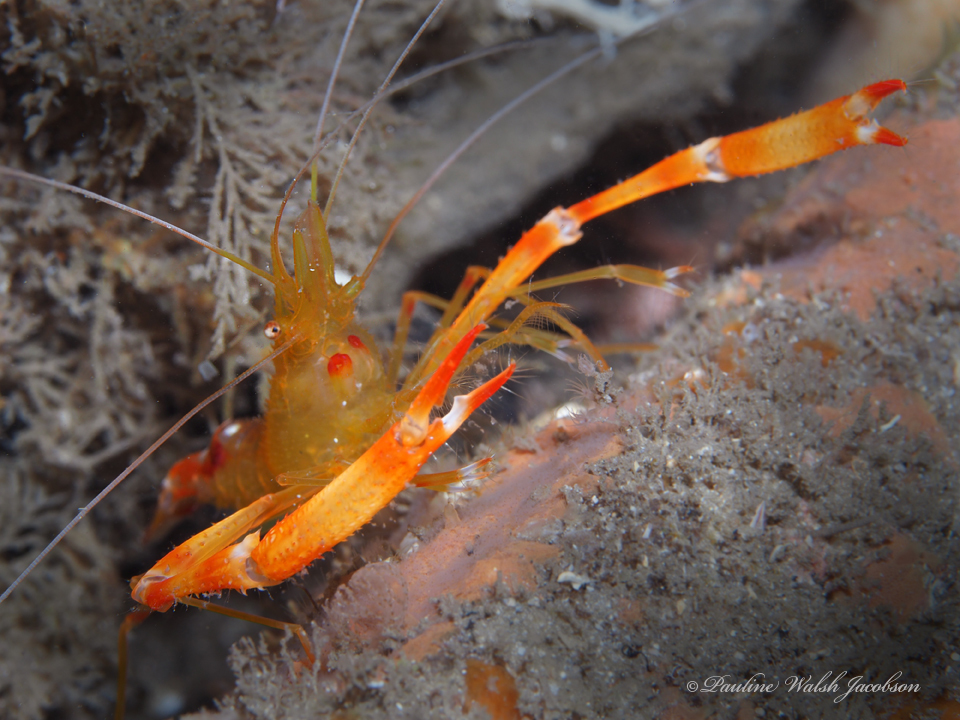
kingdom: Animalia
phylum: Arthropoda
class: Malacostraca
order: Decapoda
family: Stenopodidae
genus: Stenopus
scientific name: Stenopus scutellatus
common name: Golden coral shrimp
